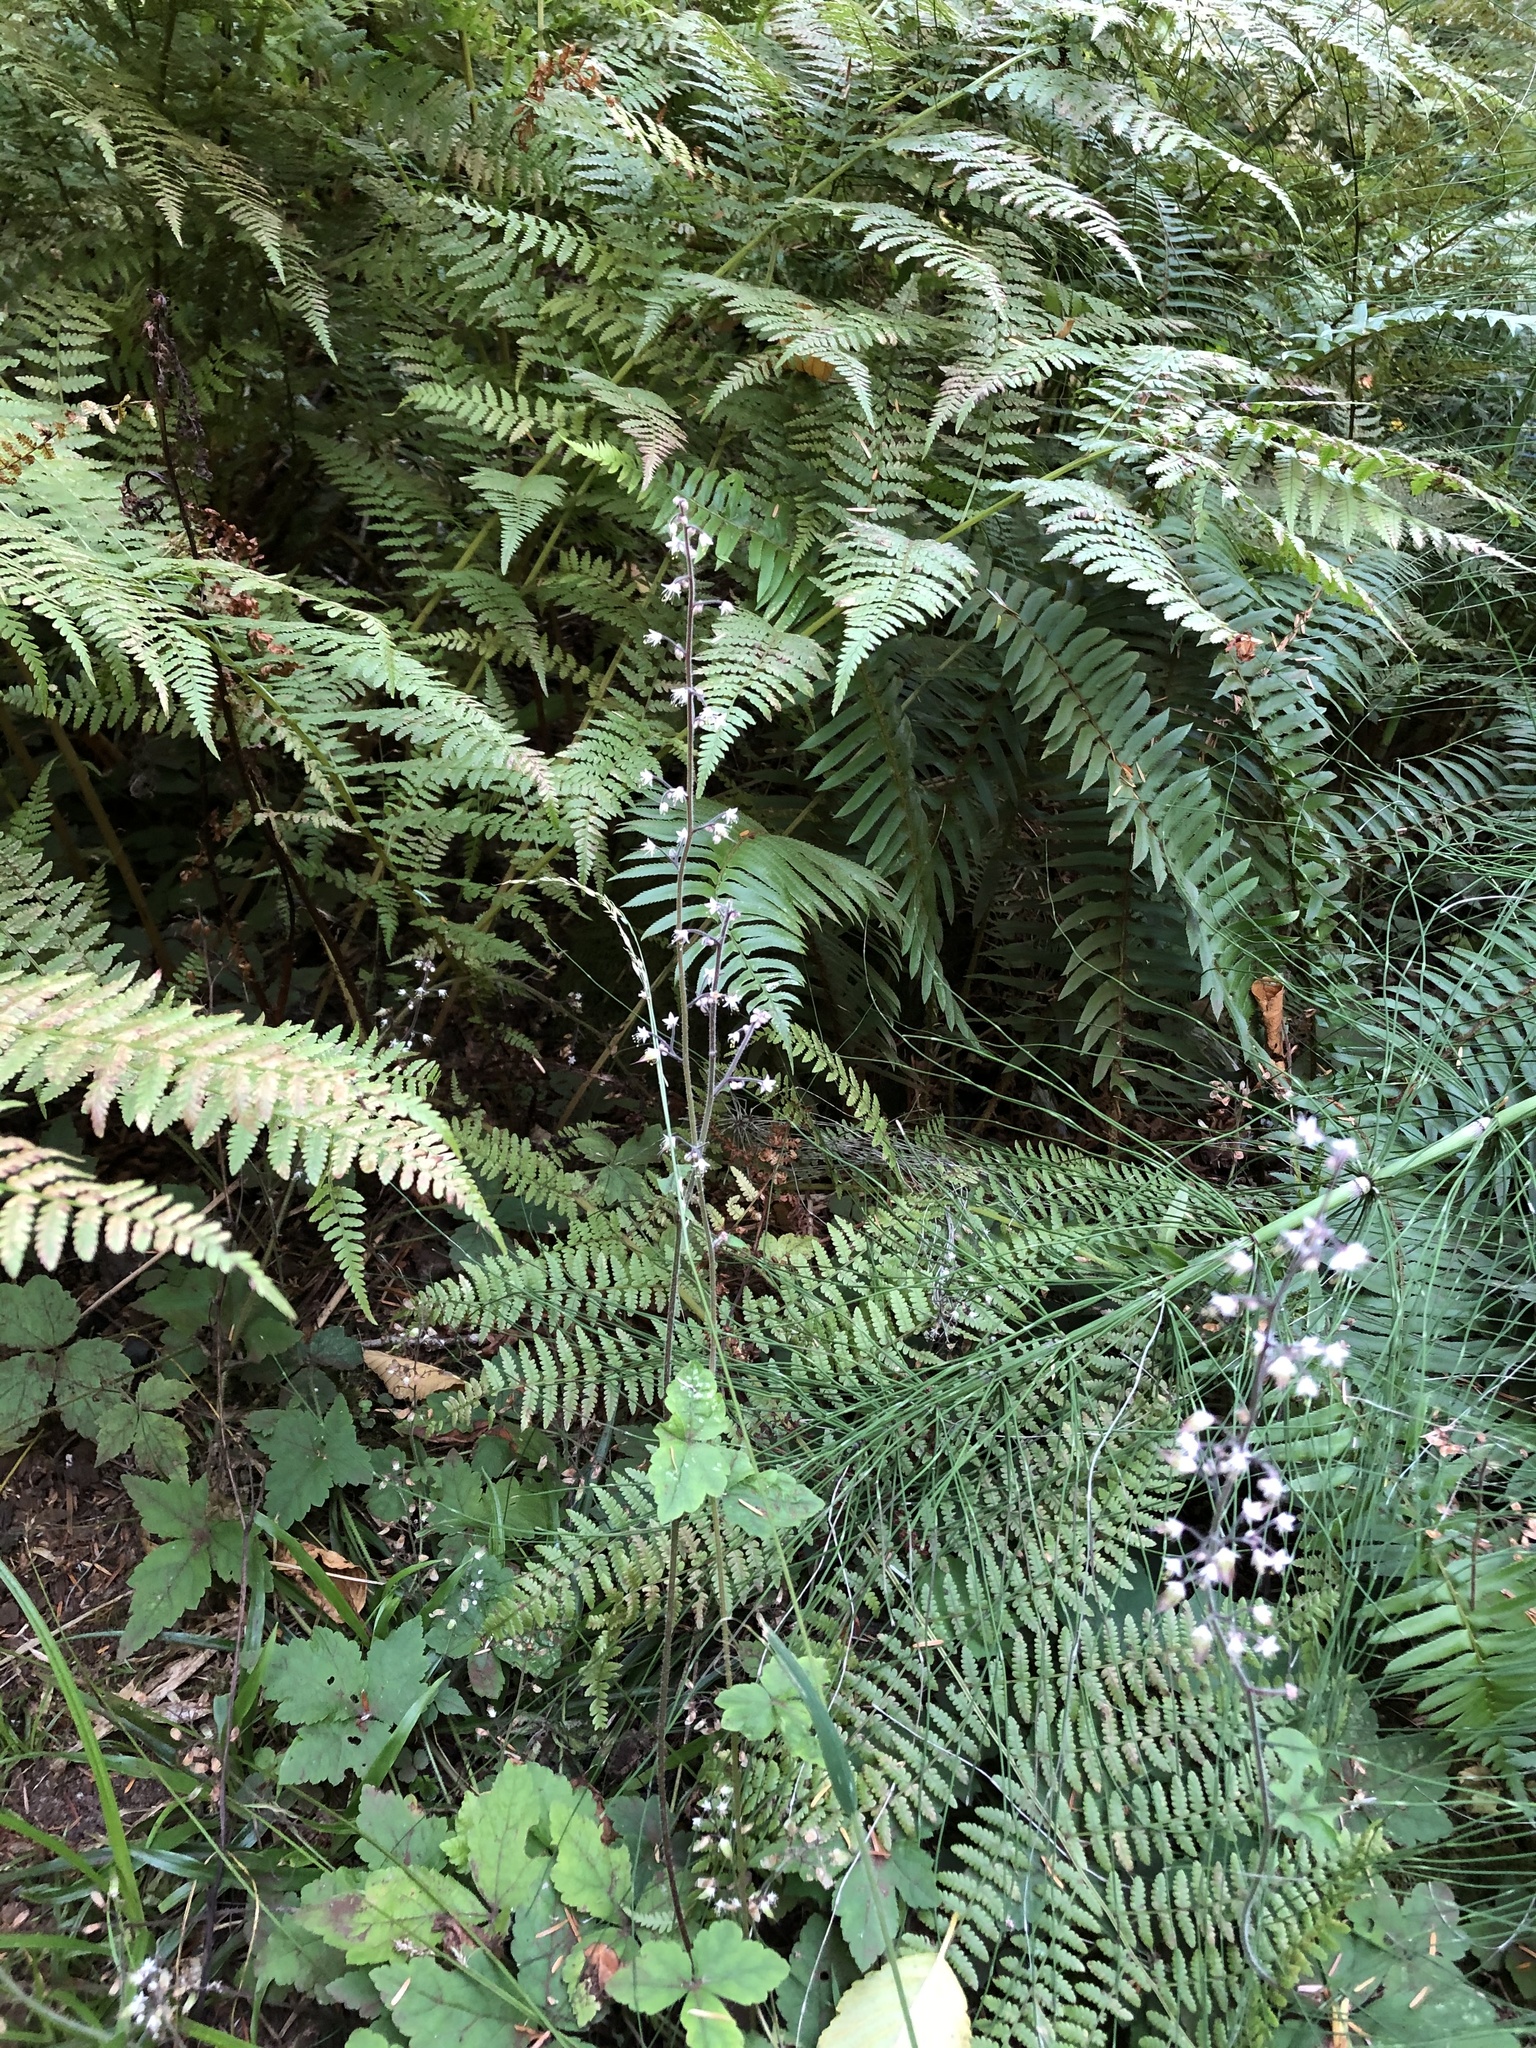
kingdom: Plantae
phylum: Tracheophyta
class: Magnoliopsida
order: Saxifragales
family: Saxifragaceae
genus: Tiarella
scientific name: Tiarella trifoliata
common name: Sugar-scoop
